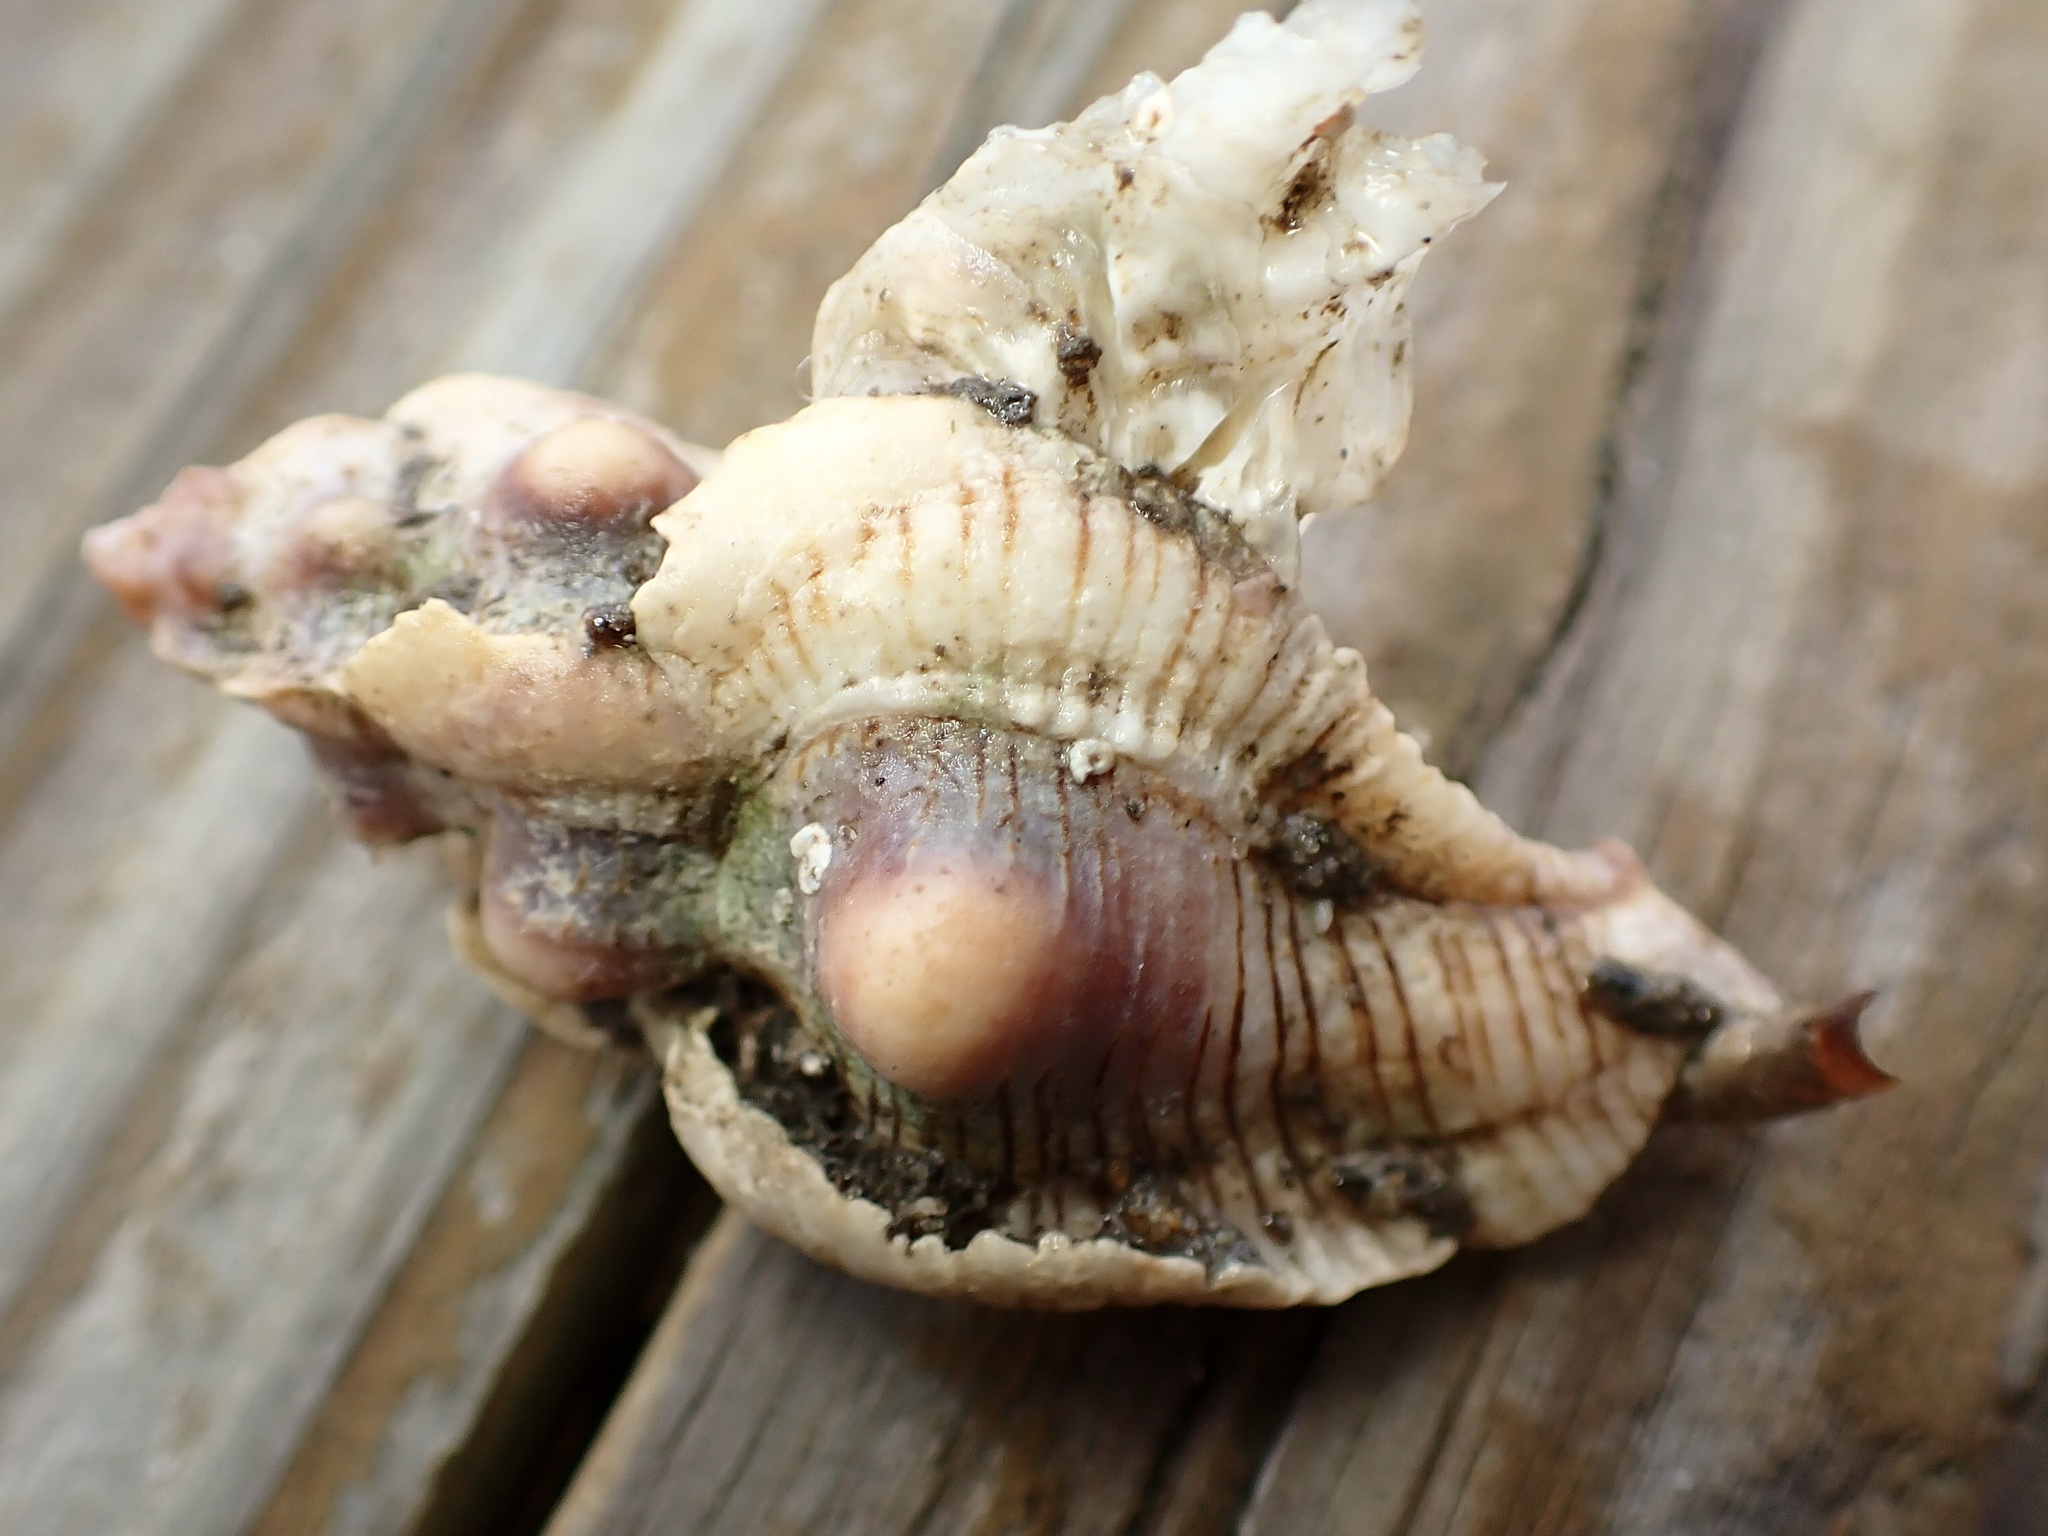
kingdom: Animalia
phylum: Mollusca
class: Gastropoda
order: Neogastropoda
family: Muricidae
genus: Pteropurpura
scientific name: Pteropurpura festiva
